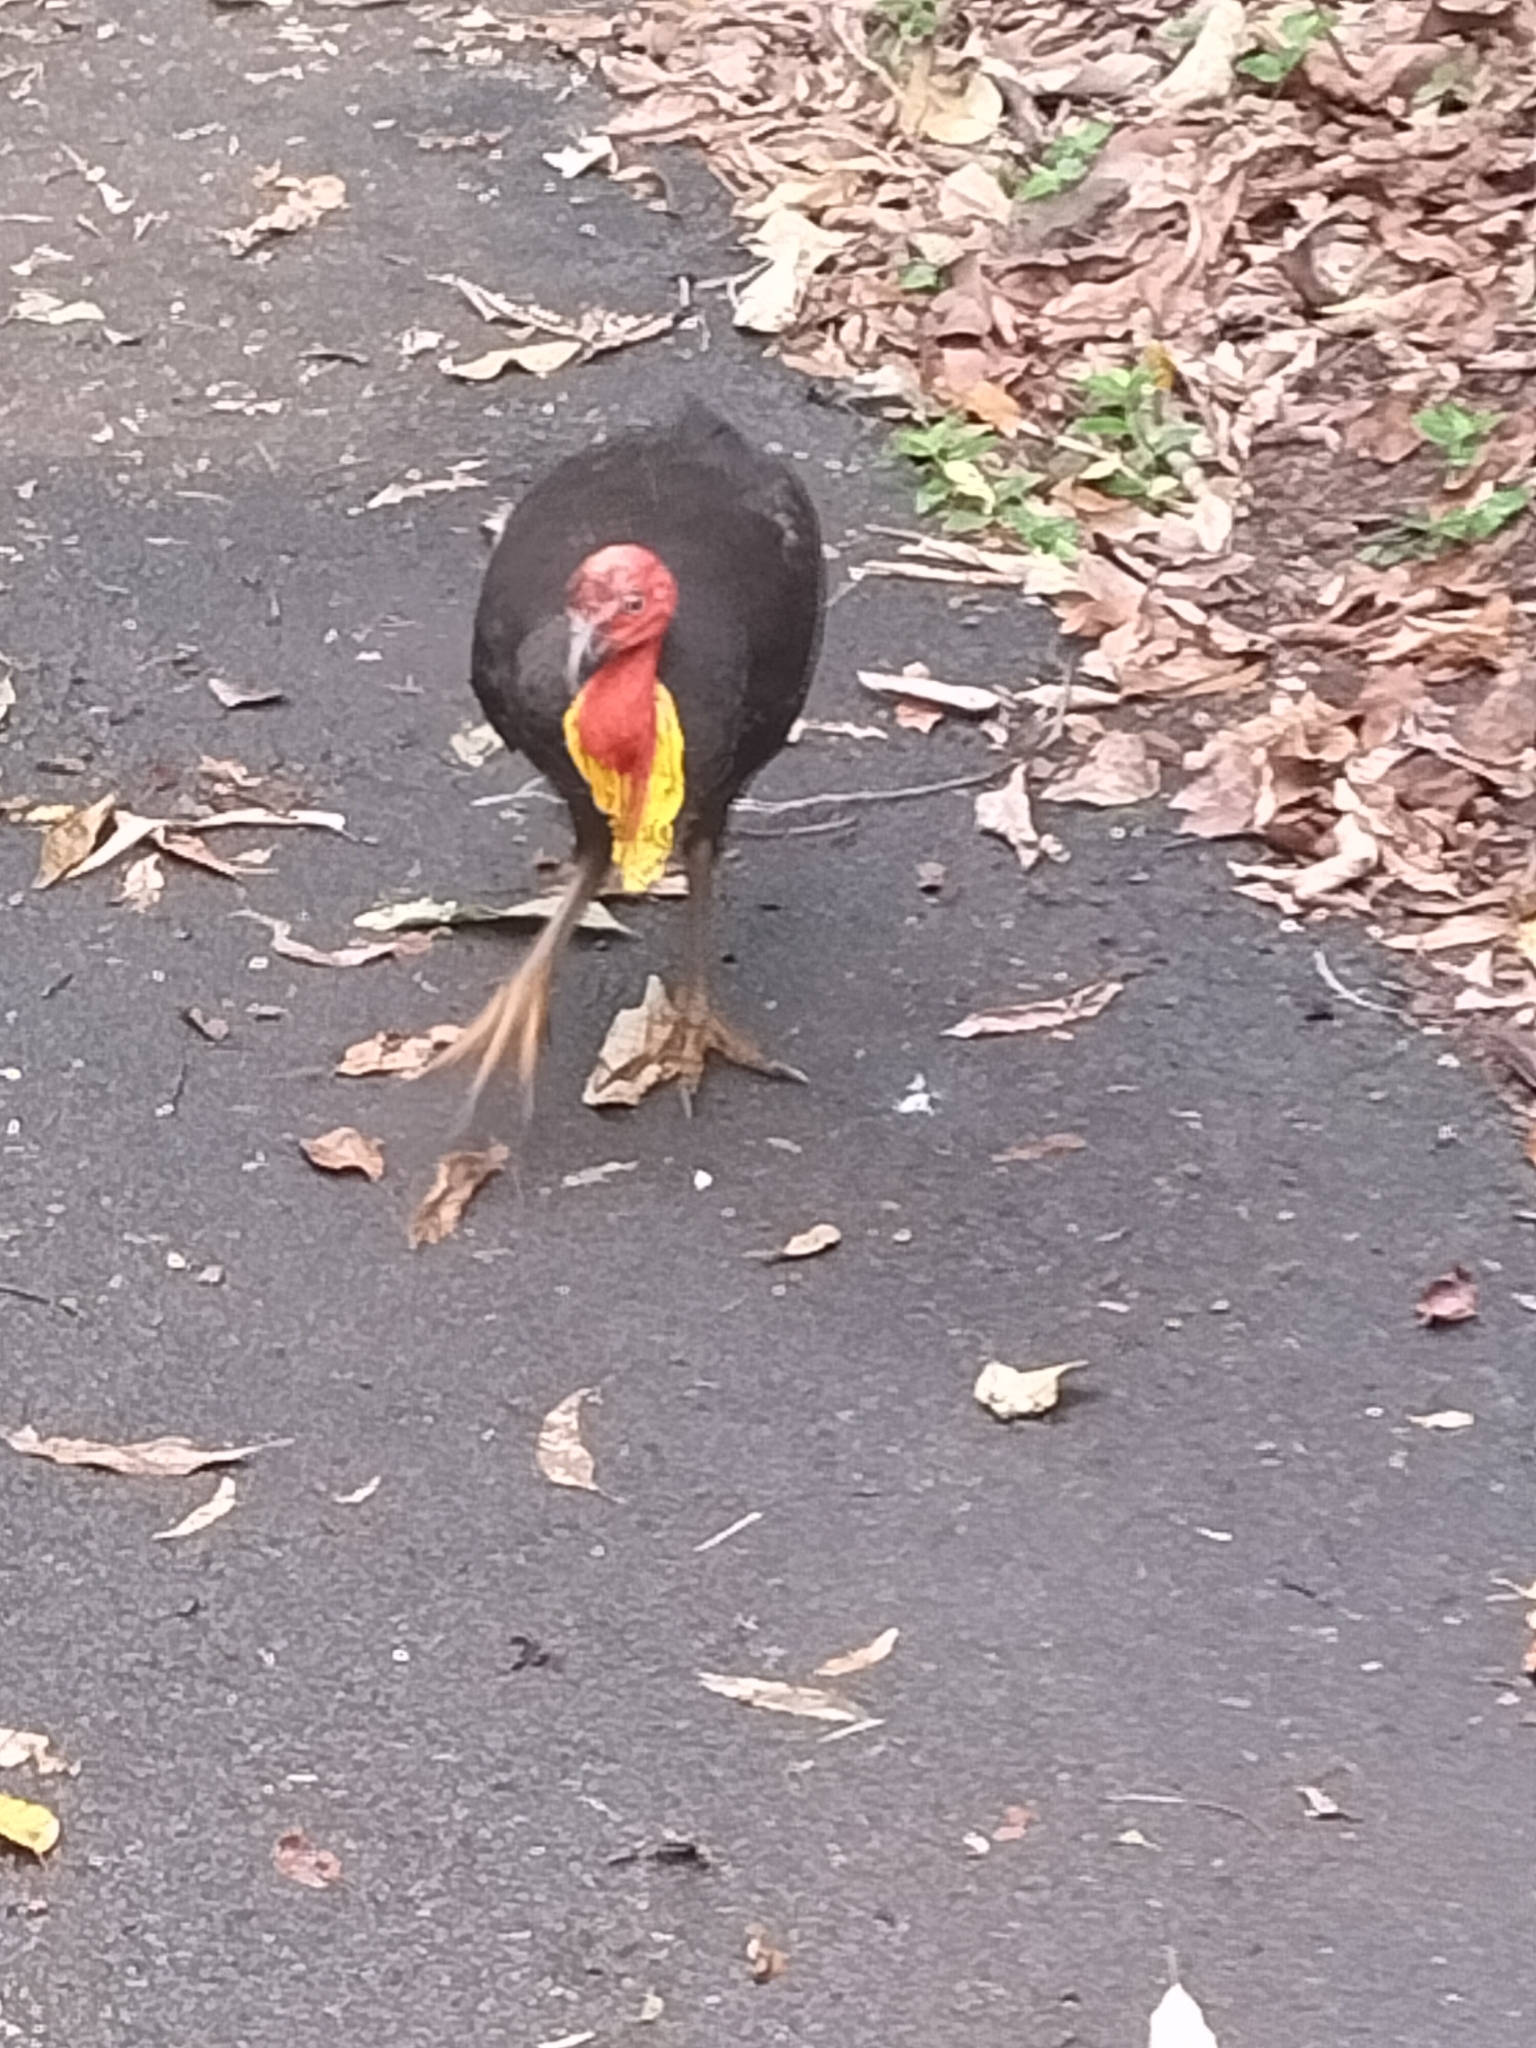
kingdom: Animalia
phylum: Chordata
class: Aves
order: Galliformes
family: Megapodiidae
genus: Alectura
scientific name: Alectura lathami
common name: Australian brushturkey
